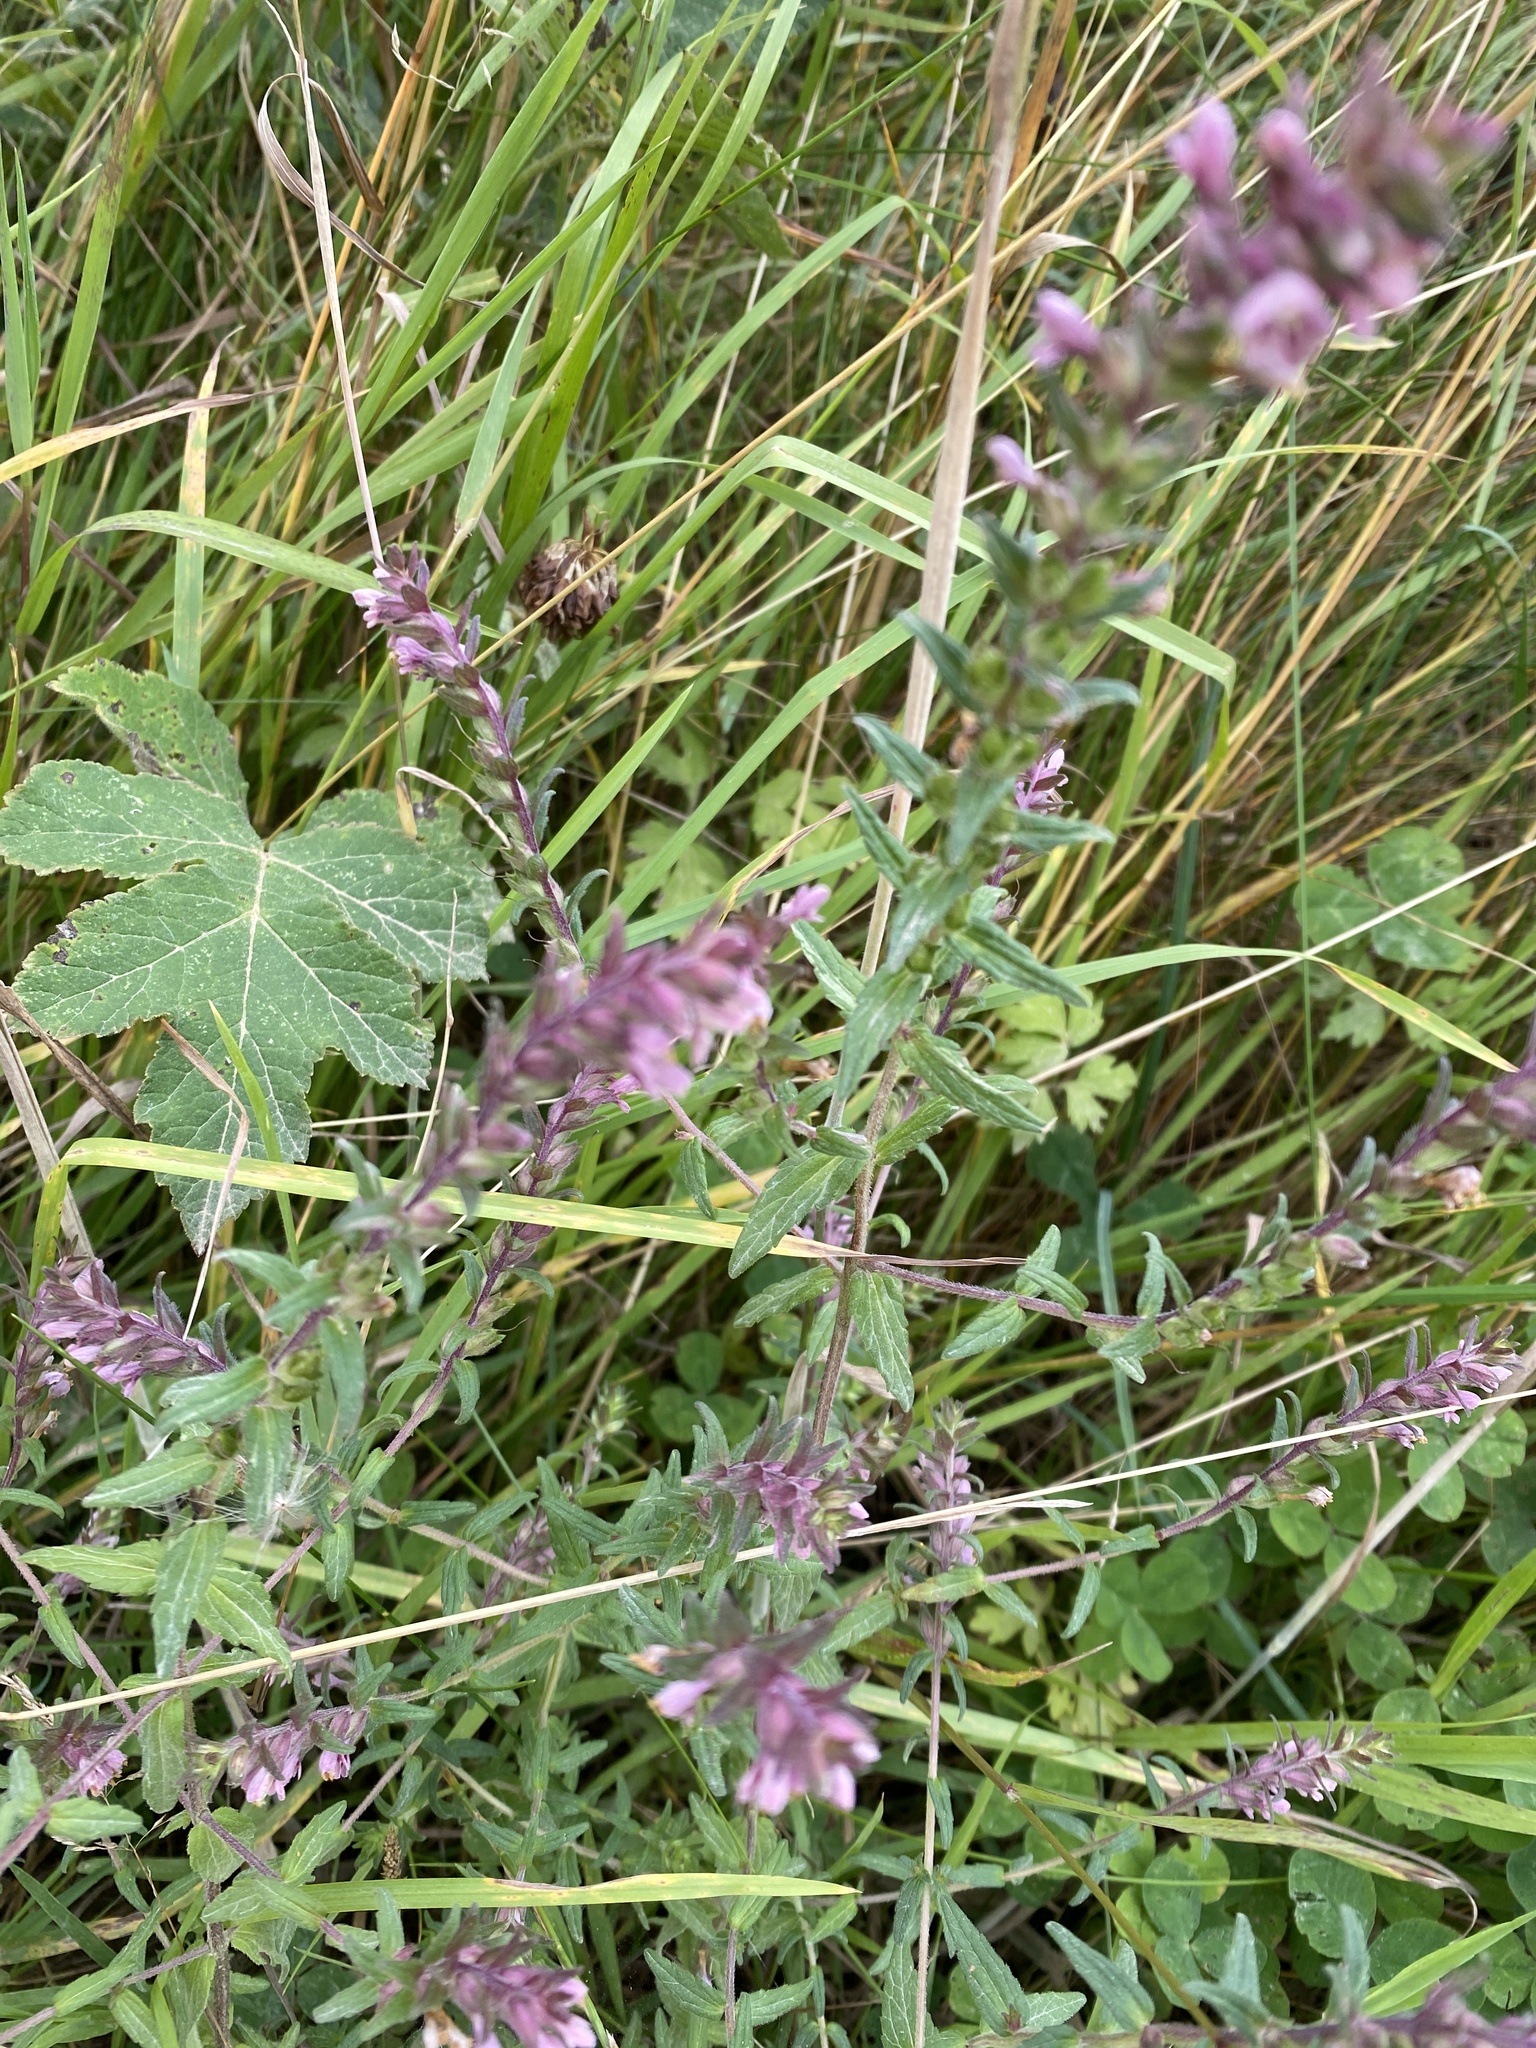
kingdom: Plantae
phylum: Tracheophyta
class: Magnoliopsida
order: Lamiales
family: Orobanchaceae
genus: Odontites
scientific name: Odontites vernus
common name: Red bartsia
